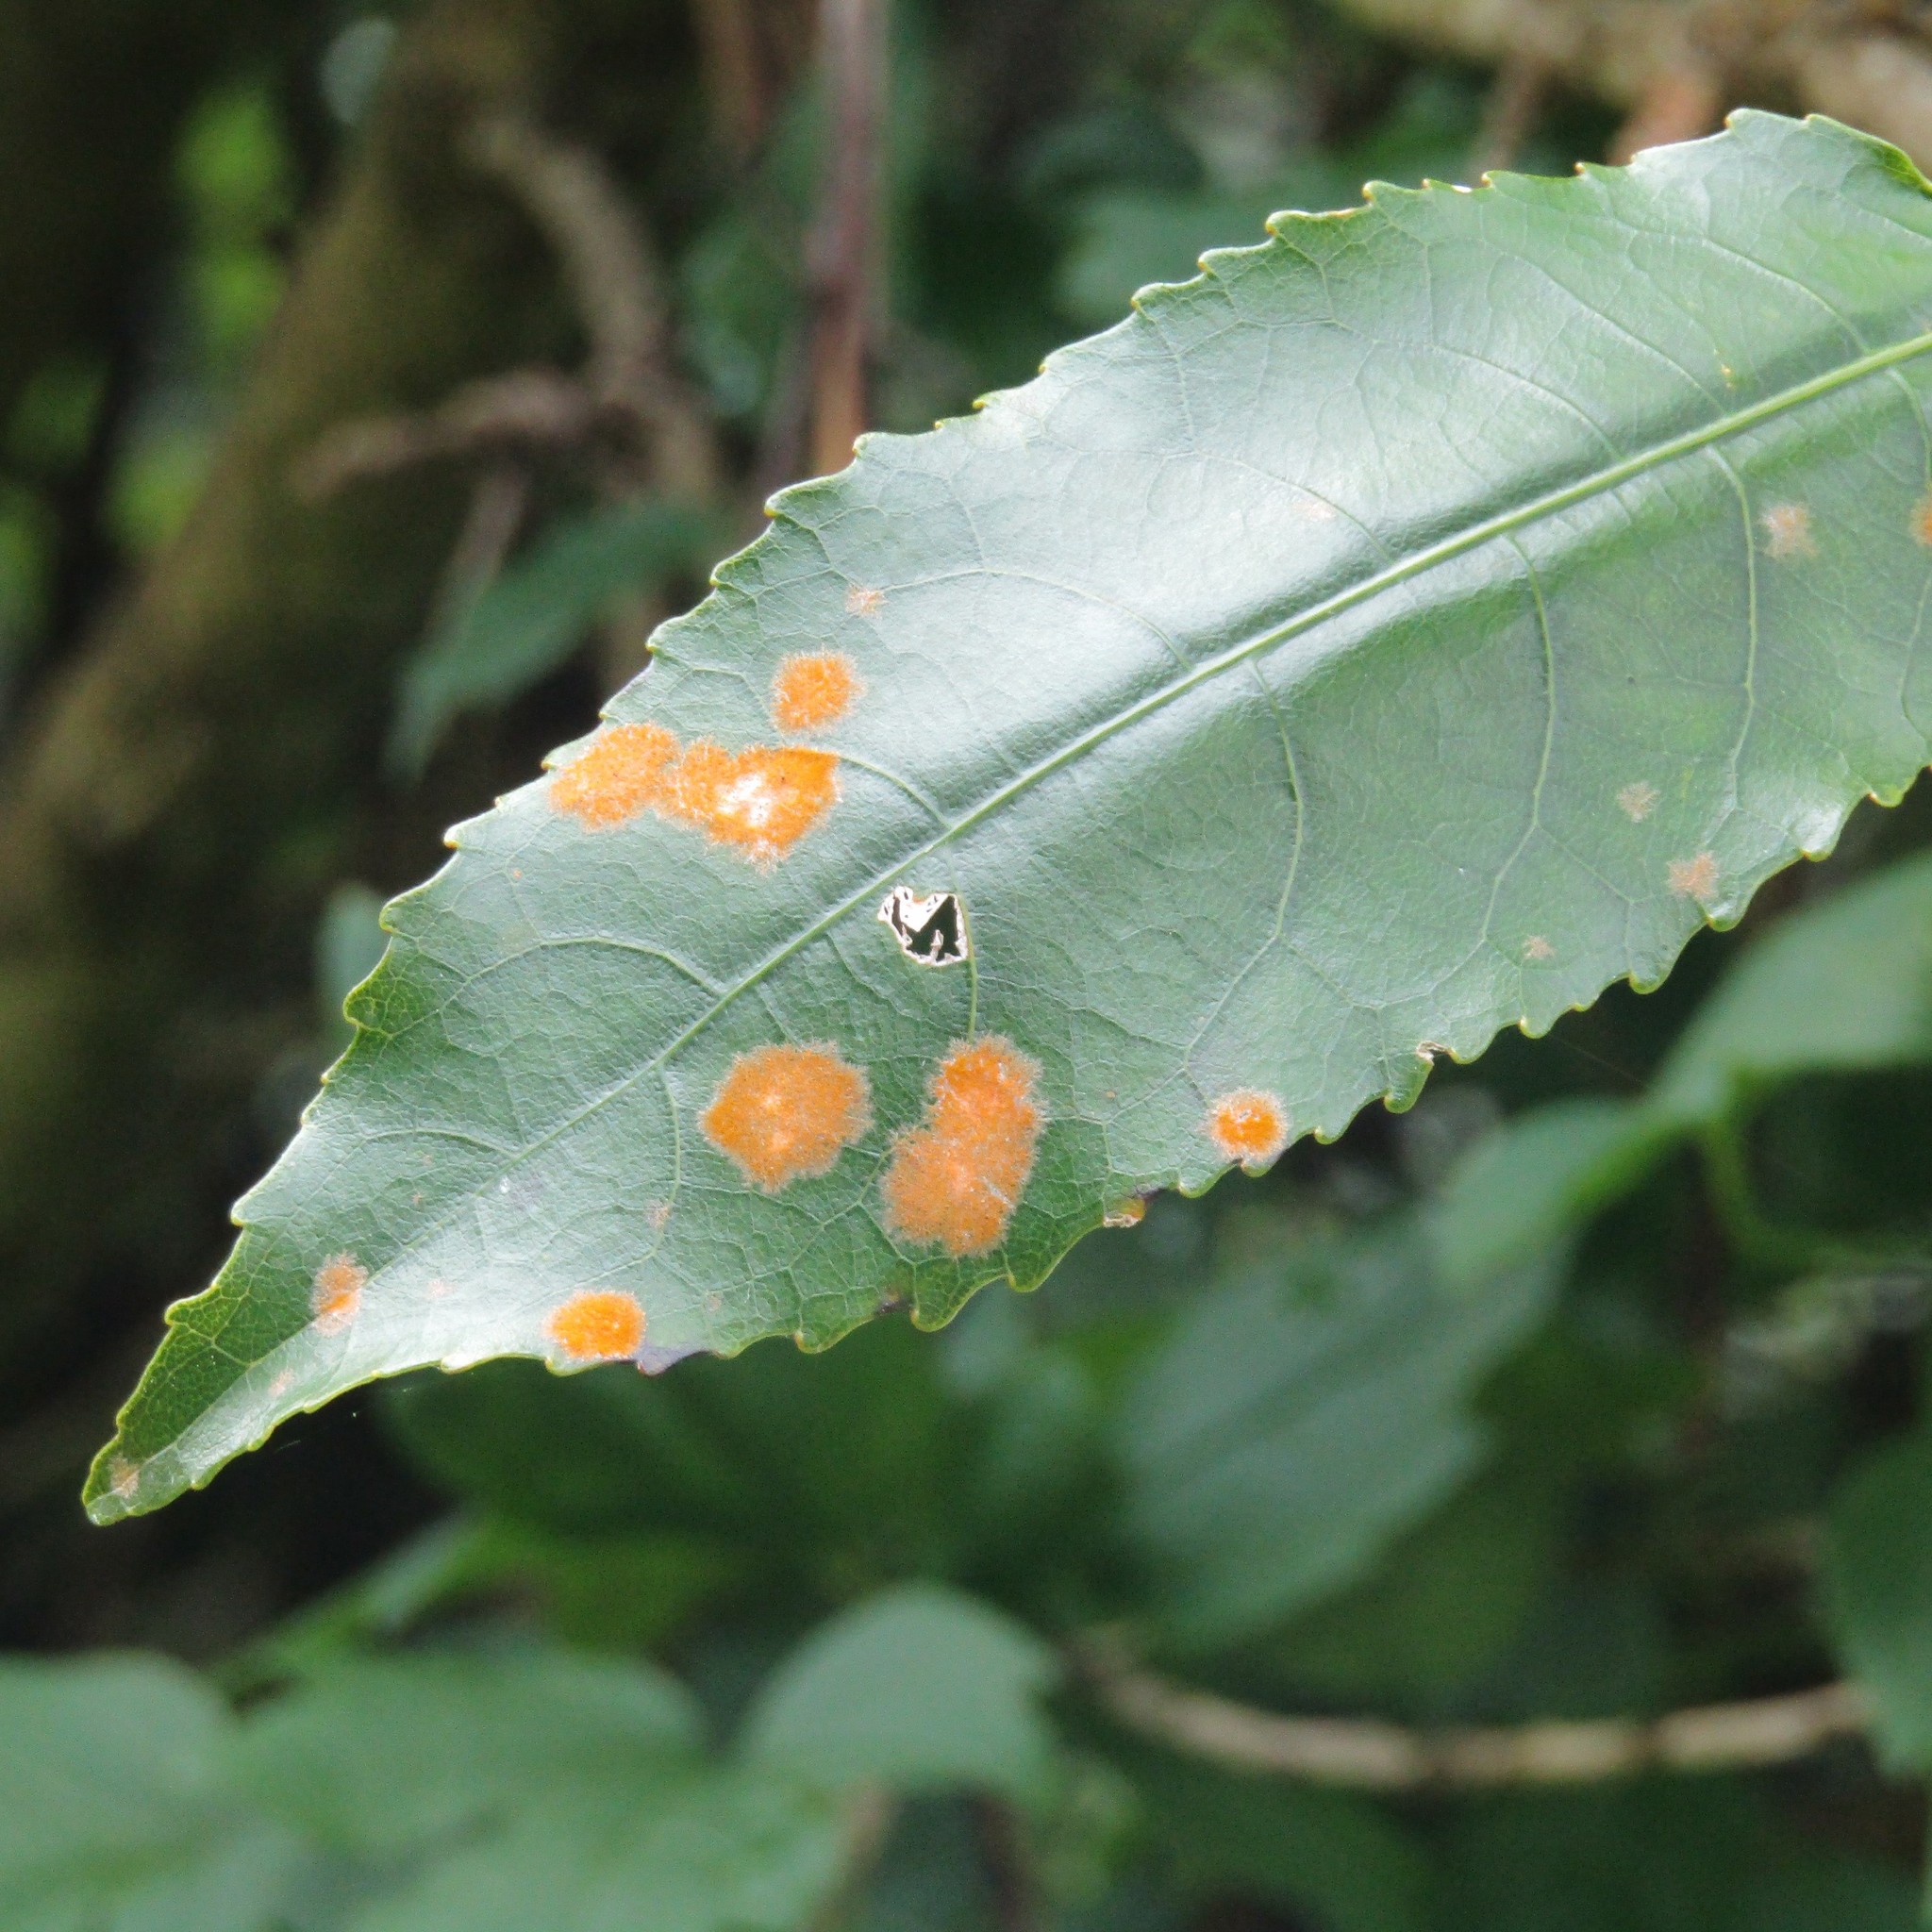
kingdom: Plantae
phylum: Chlorophyta
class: Ulvophyceae
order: Trentepohliales
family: Trentepohliaceae
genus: Cephaleuros
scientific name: Cephaleuros
